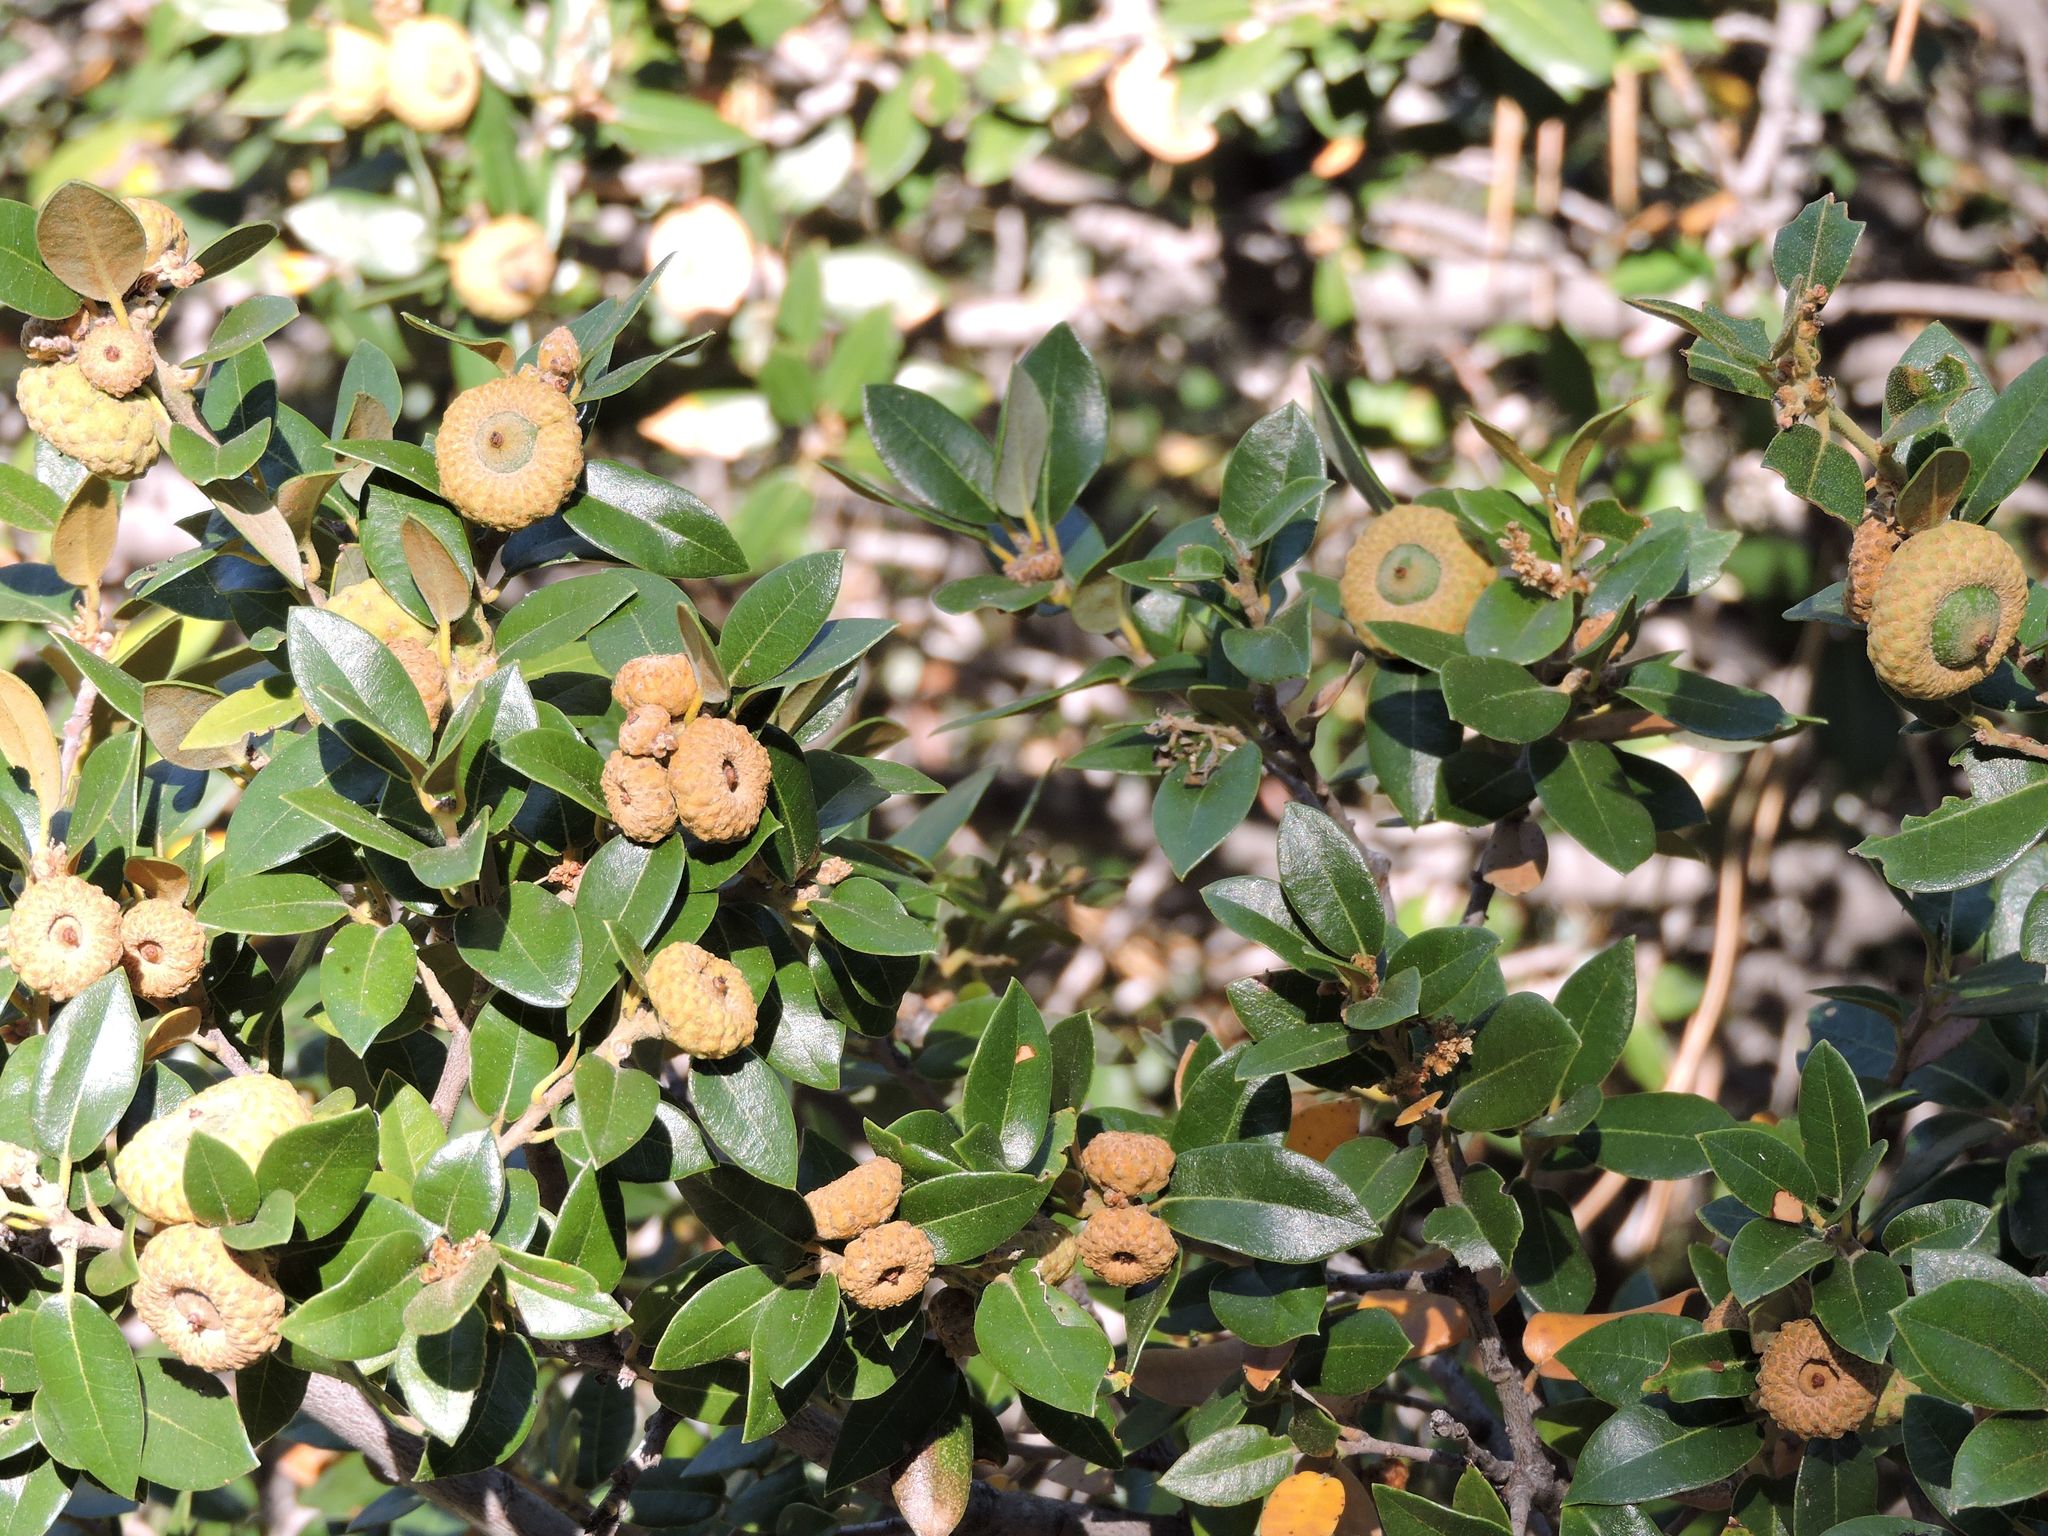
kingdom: Plantae
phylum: Tracheophyta
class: Magnoliopsida
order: Fagales
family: Fagaceae
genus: Quercus
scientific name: Quercus chrysolepis
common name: Canyon live oak
